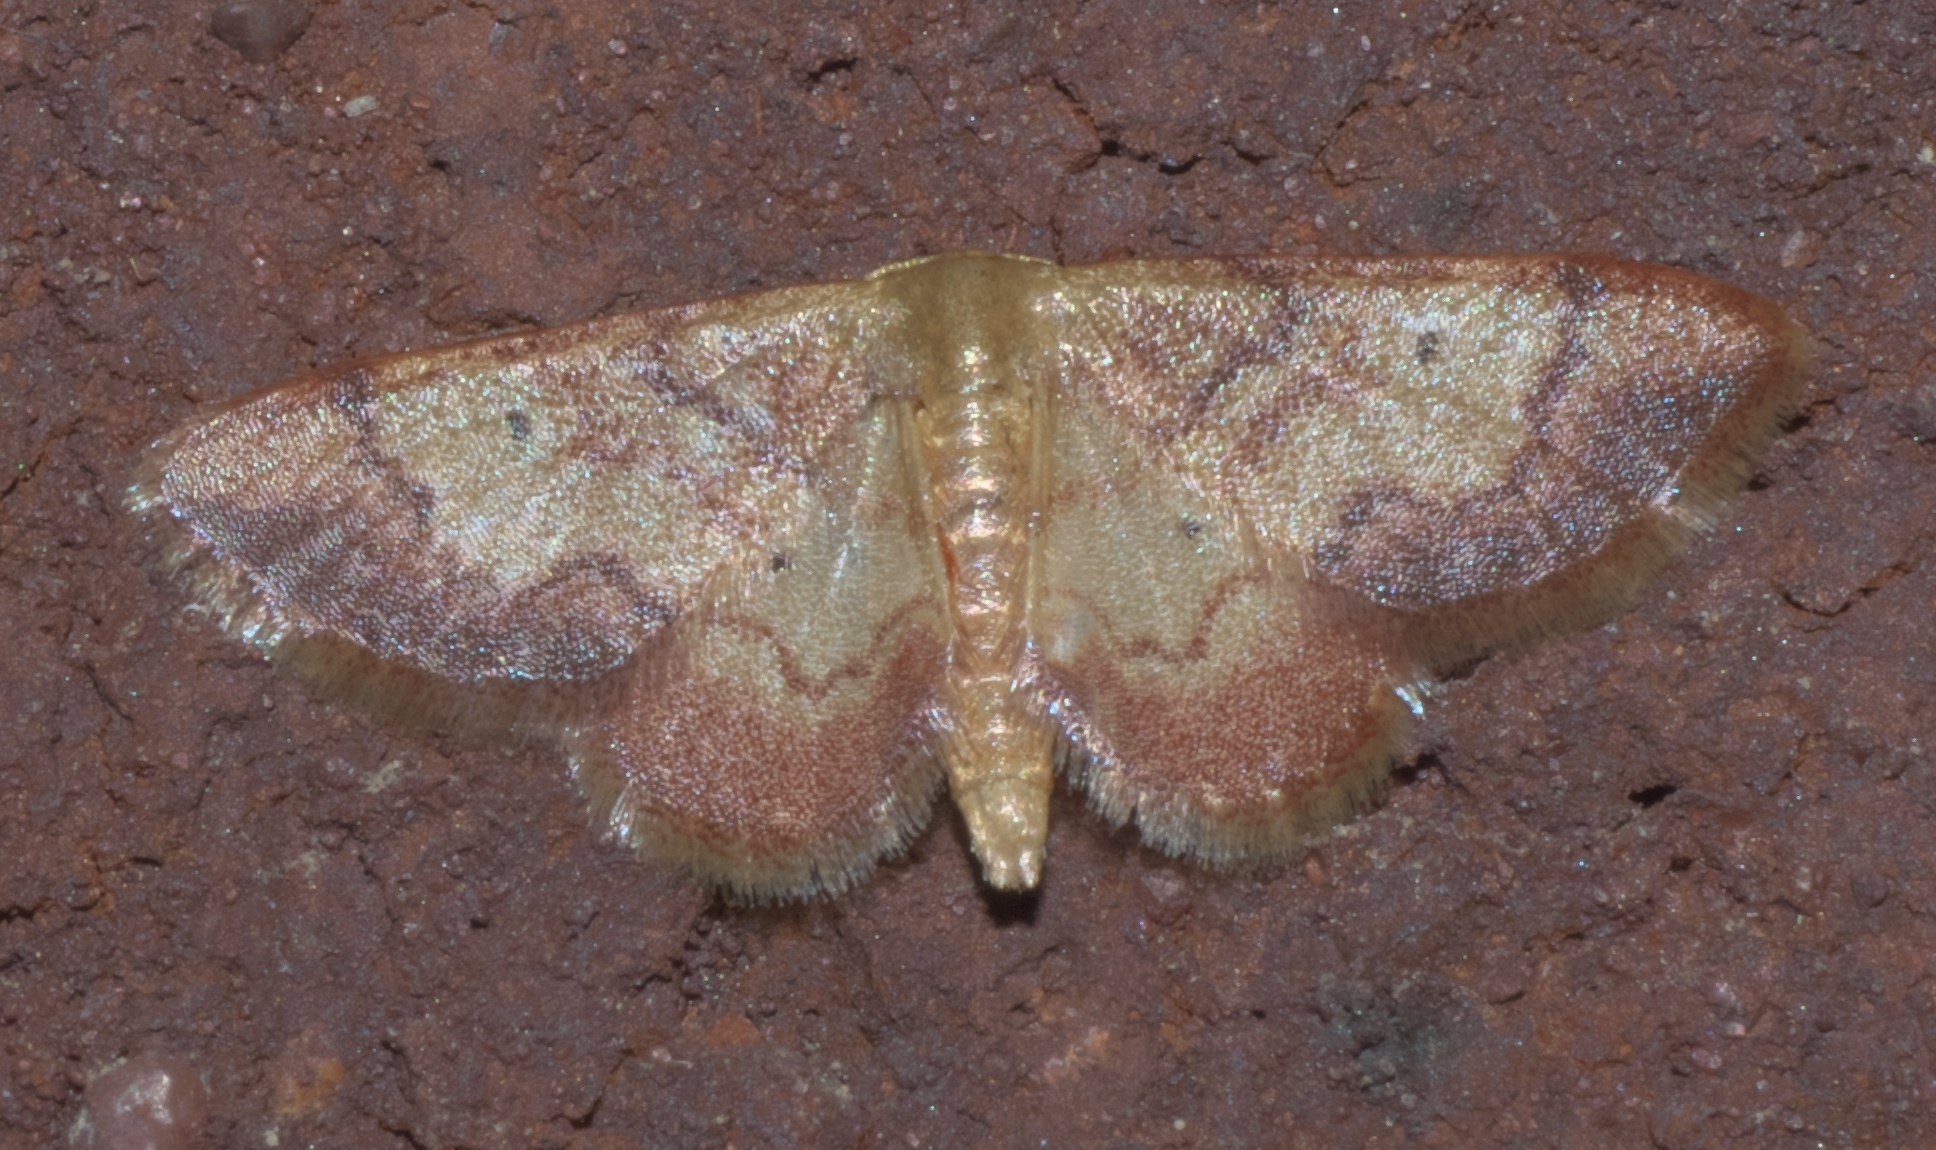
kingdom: Animalia
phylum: Arthropoda
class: Insecta
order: Lepidoptera
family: Geometridae
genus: Idaea
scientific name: Idaea demissaria
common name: Red-bordered wave
